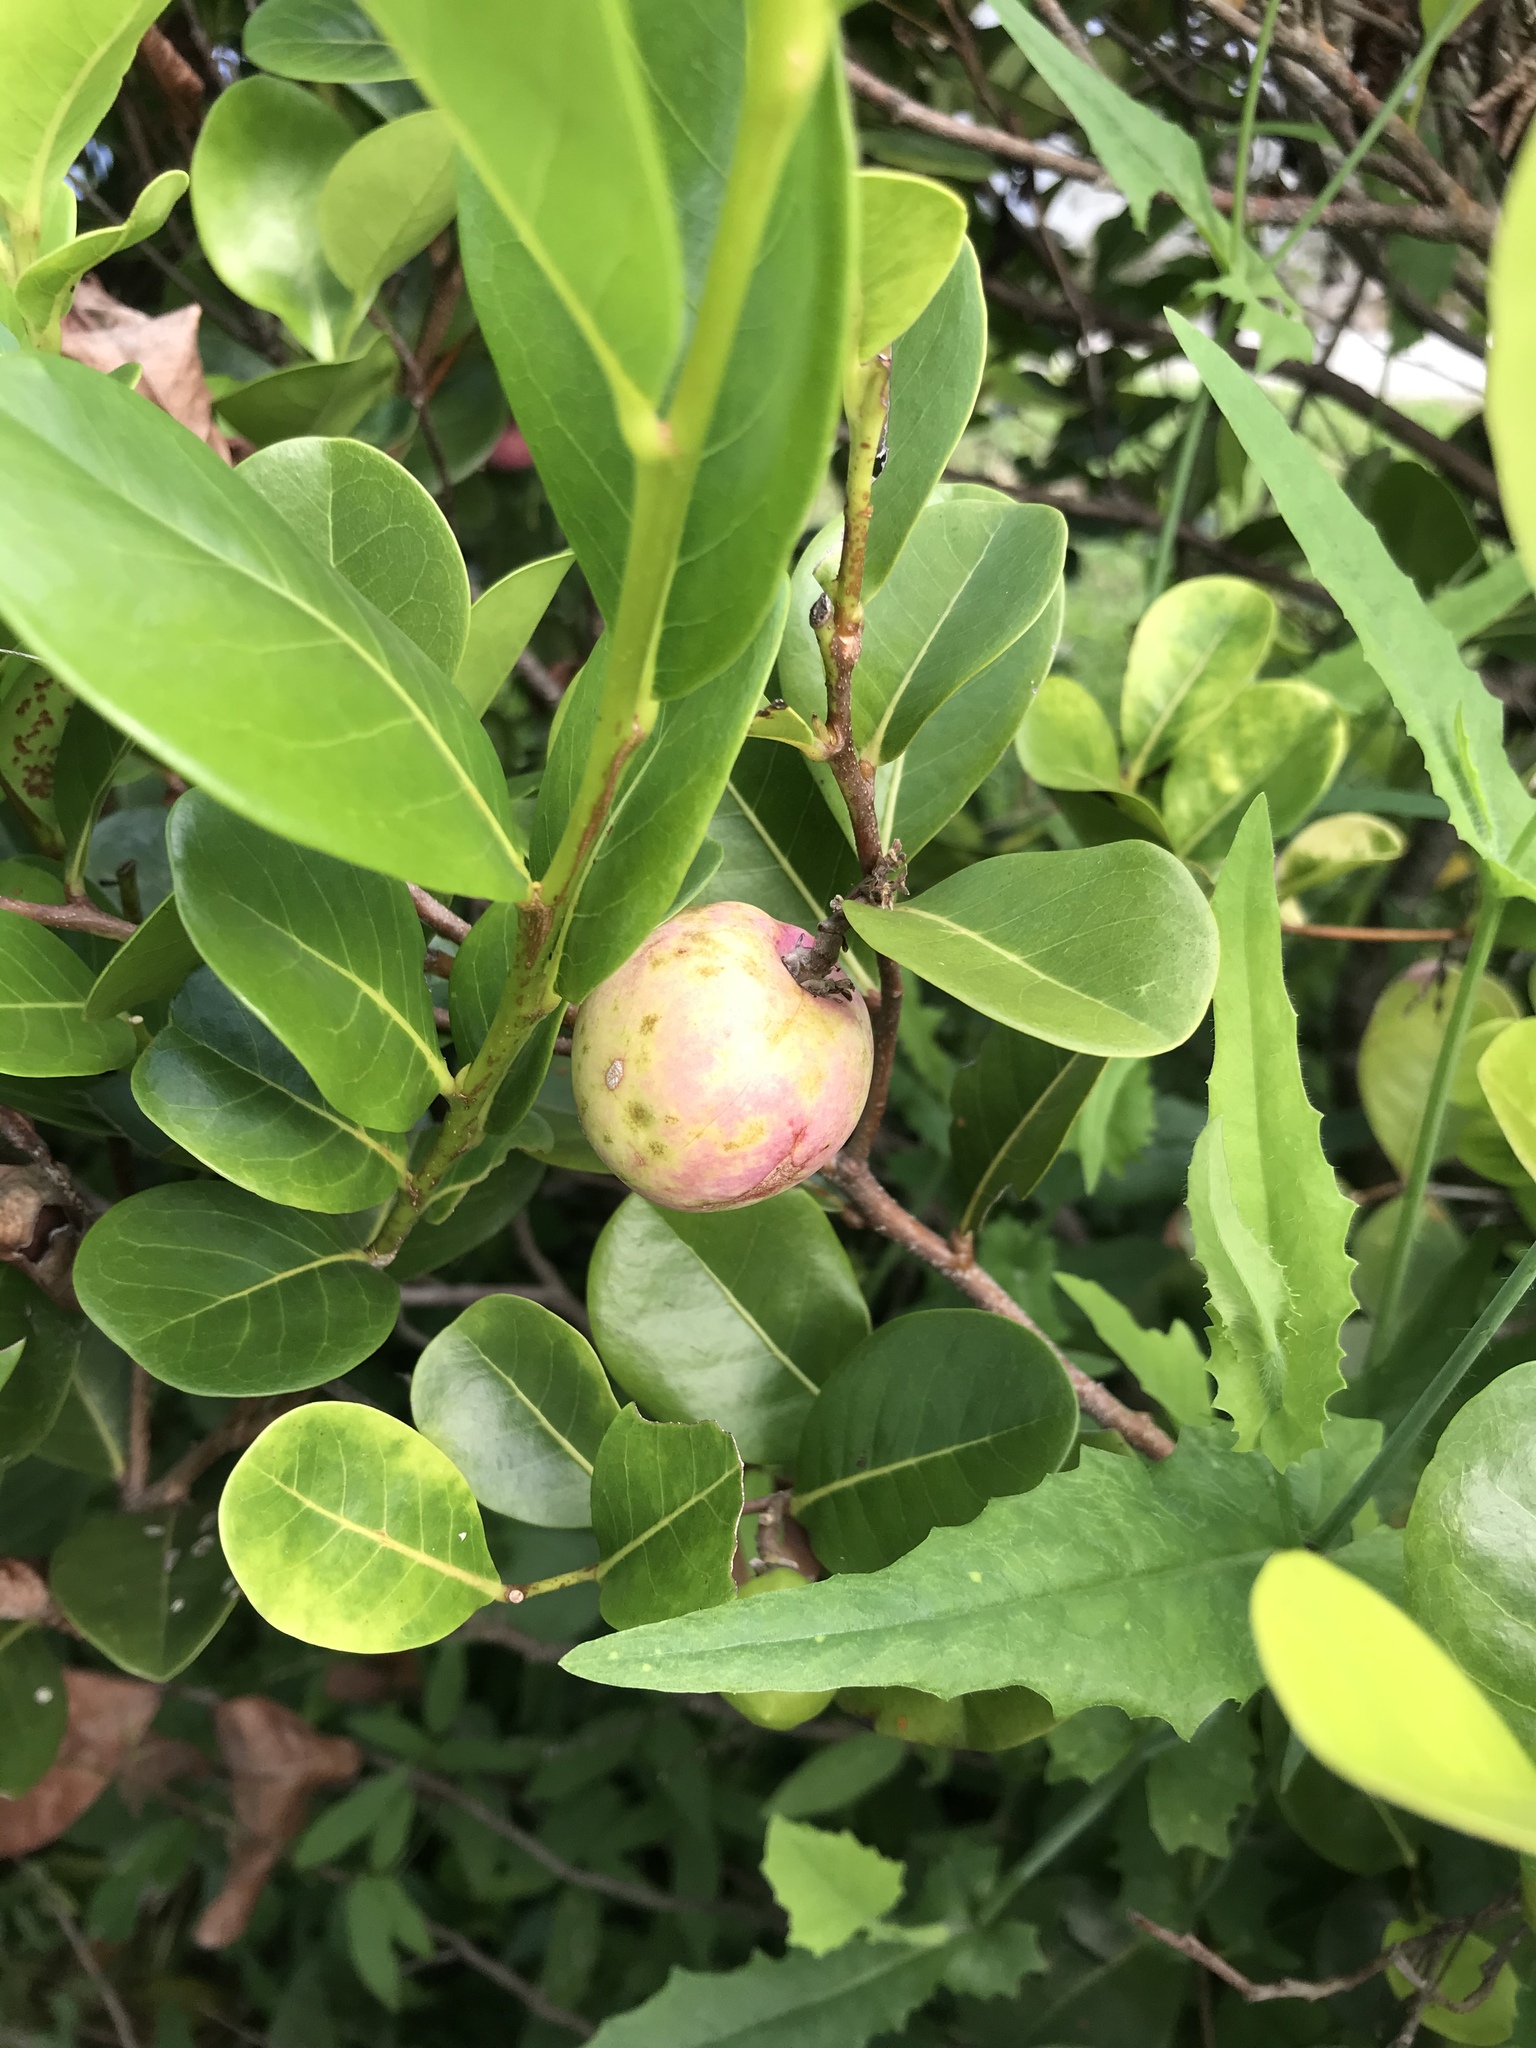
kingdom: Plantae
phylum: Tracheophyta
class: Magnoliopsida
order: Malpighiales
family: Chrysobalanaceae
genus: Chrysobalanus
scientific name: Chrysobalanus icaco
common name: Coco plum
